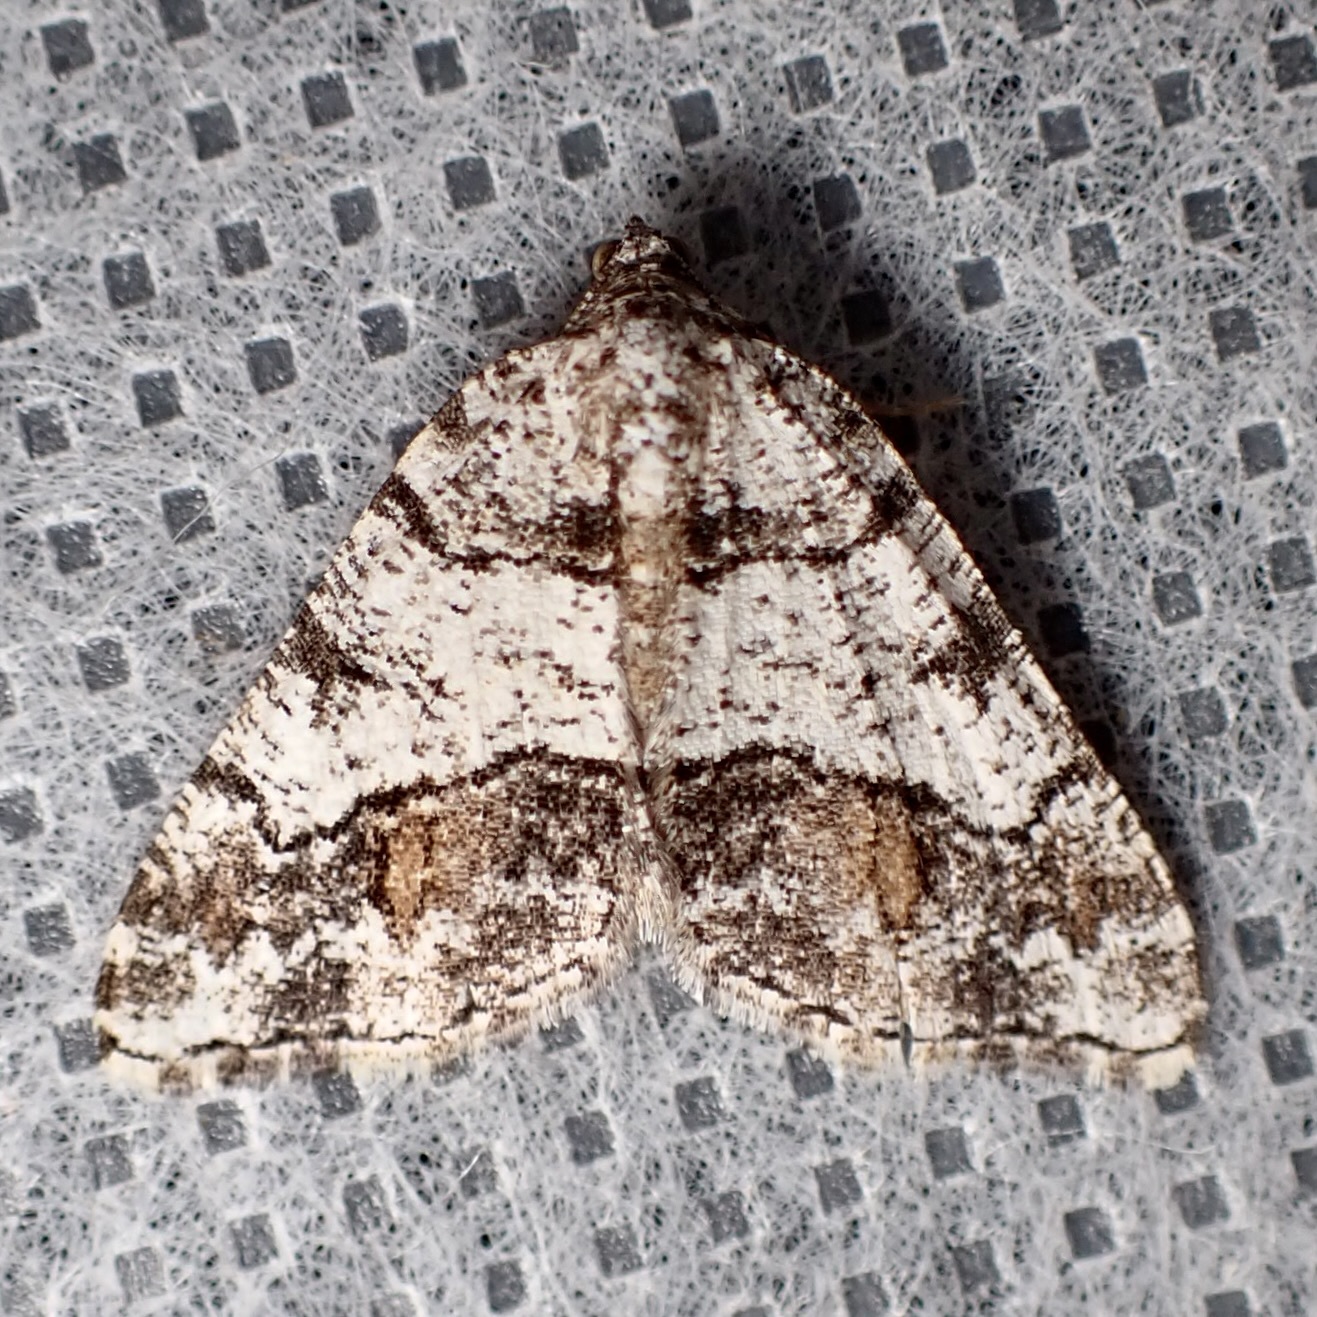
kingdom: Animalia
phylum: Arthropoda
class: Insecta
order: Lepidoptera
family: Geometridae
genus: Macaria
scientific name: Macaria deceptrix
